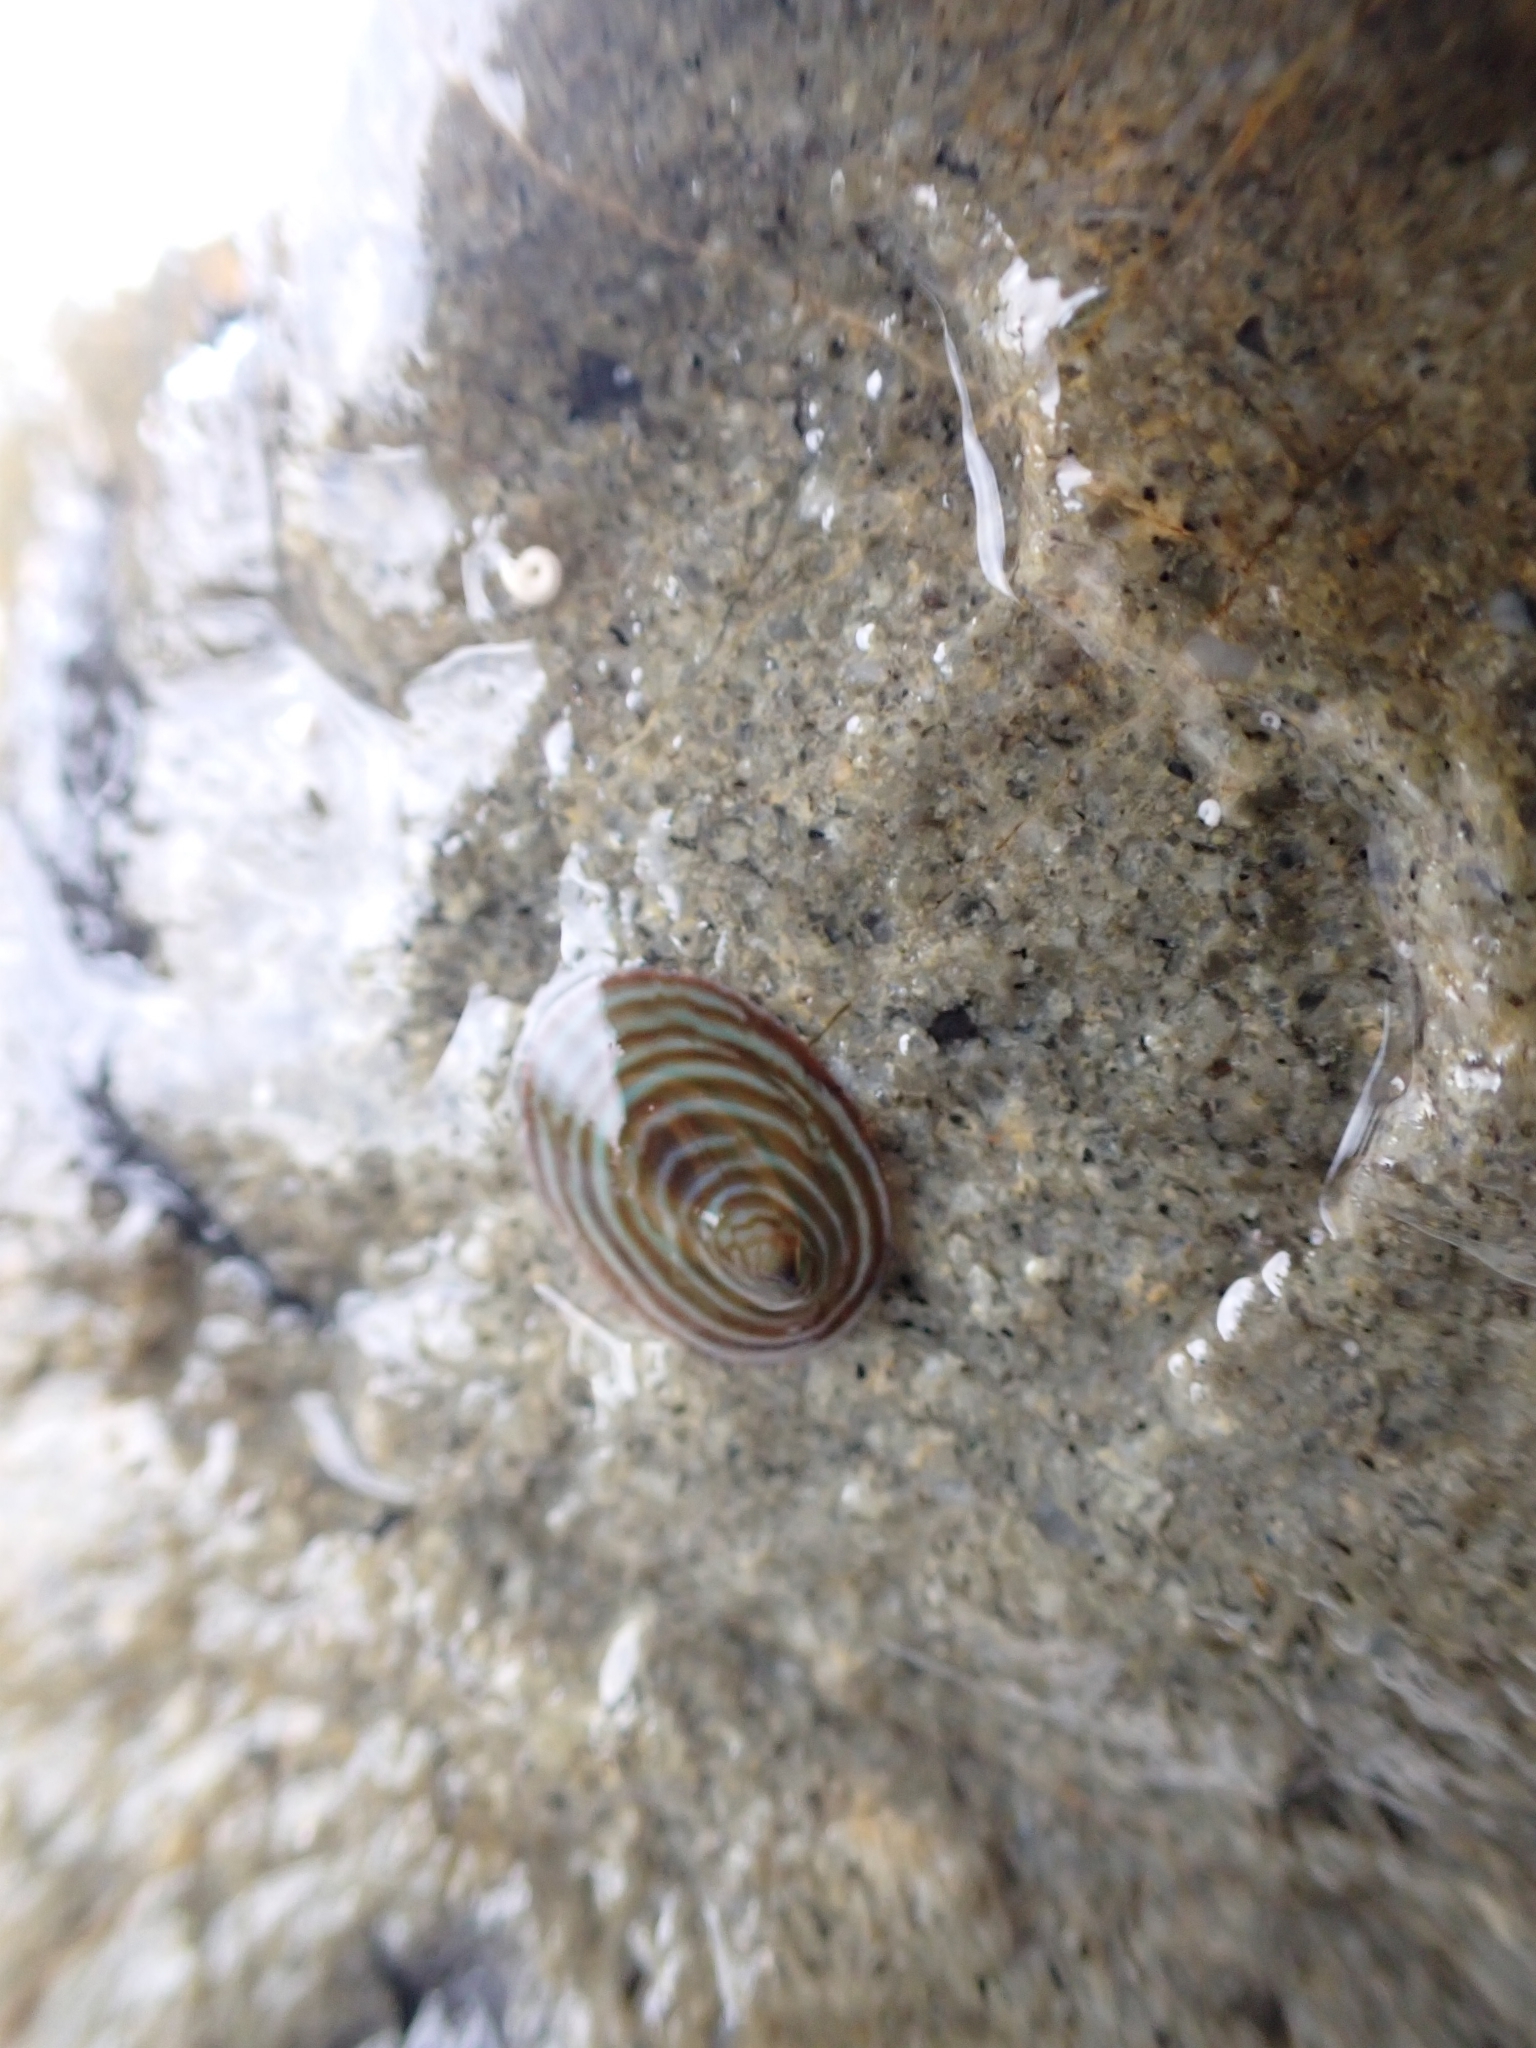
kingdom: Animalia
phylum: Mollusca
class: Gastropoda
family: Lottiidae
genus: Atalacmea
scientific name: Atalacmea fragilis
